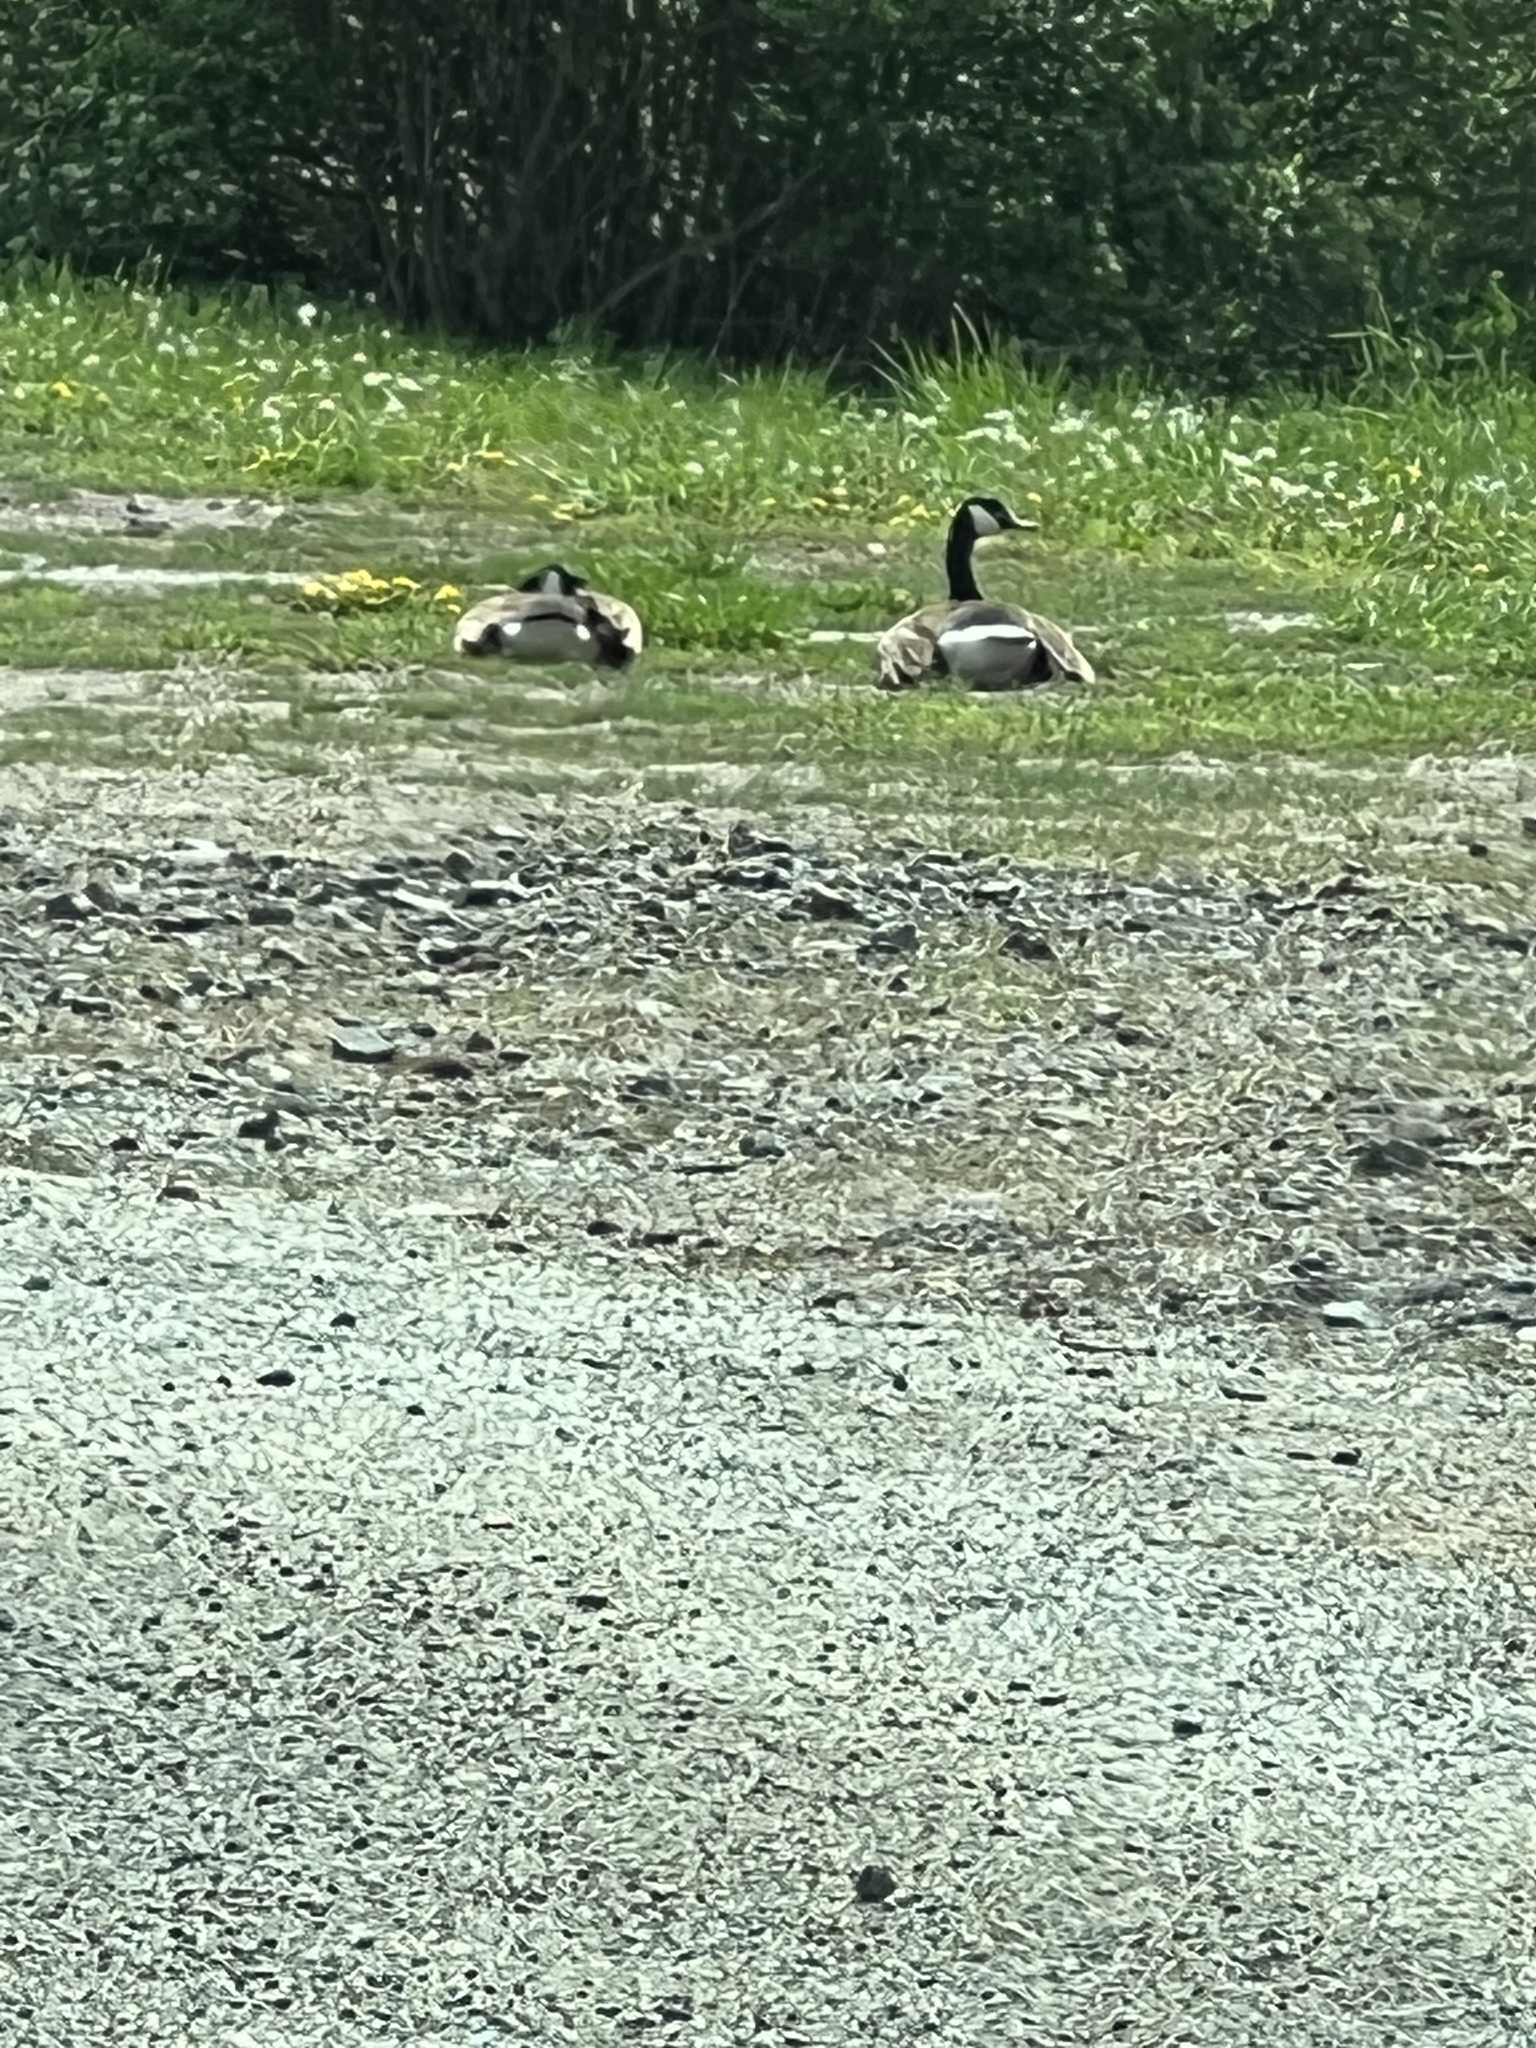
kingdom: Animalia
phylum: Chordata
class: Aves
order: Anseriformes
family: Anatidae
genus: Branta
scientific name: Branta canadensis
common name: Canada goose
